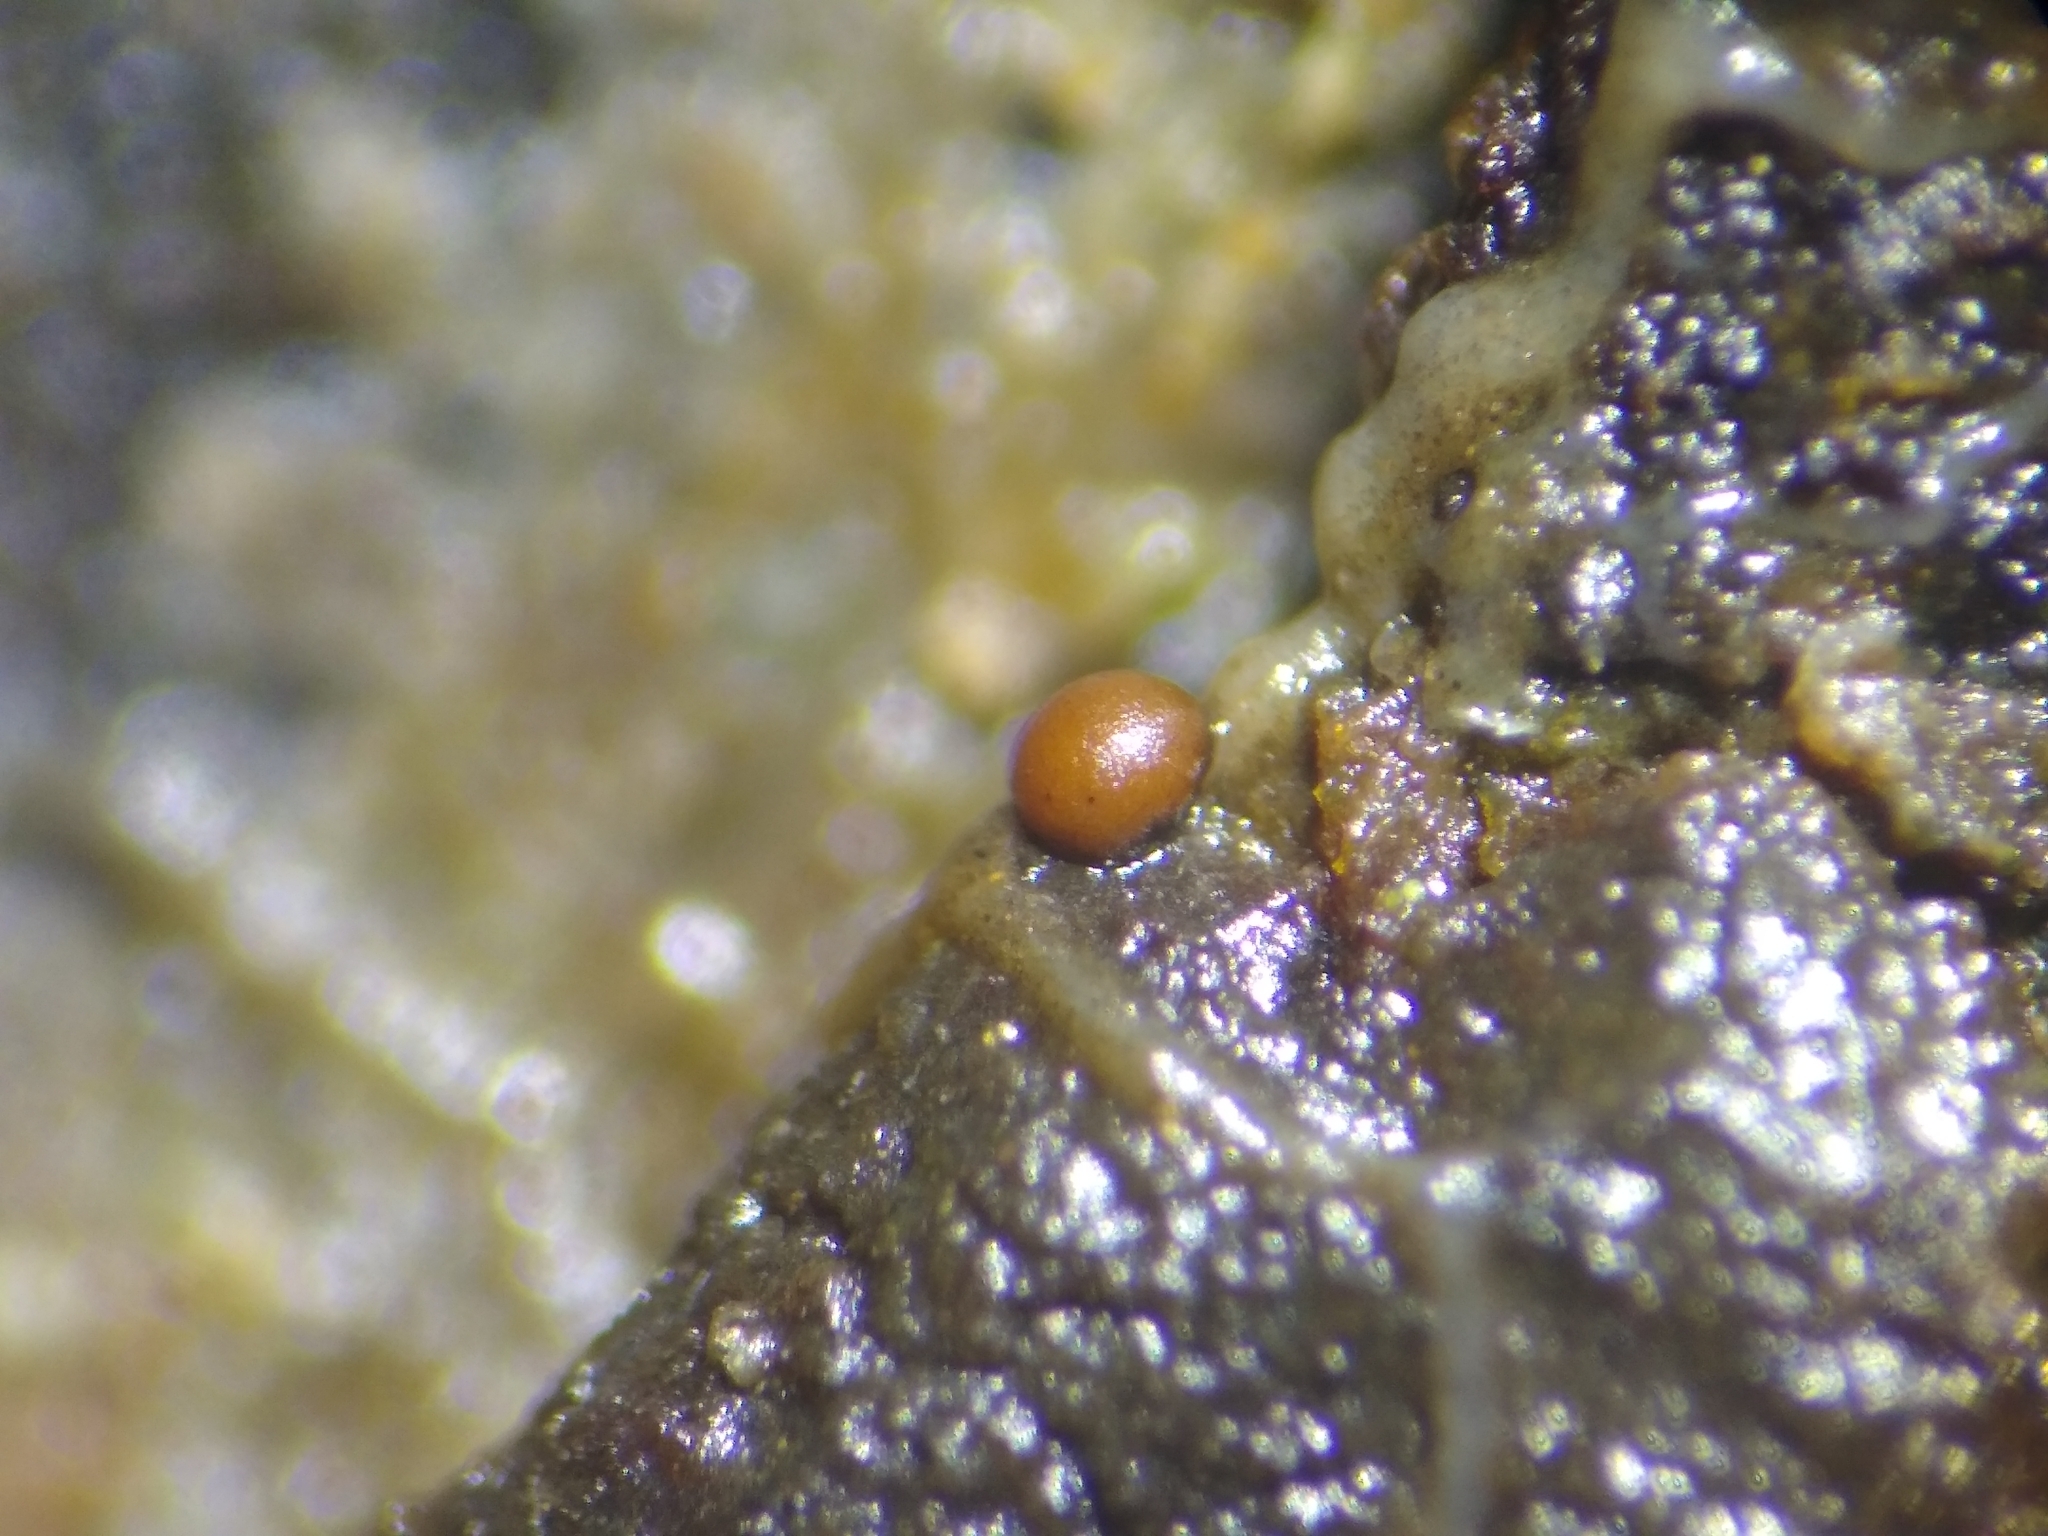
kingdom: Protozoa
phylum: Mycetozoa
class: Myxomycetes
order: Trichiales
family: Trichiaceae
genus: Gulielmina
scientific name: Gulielmina vermicularis
